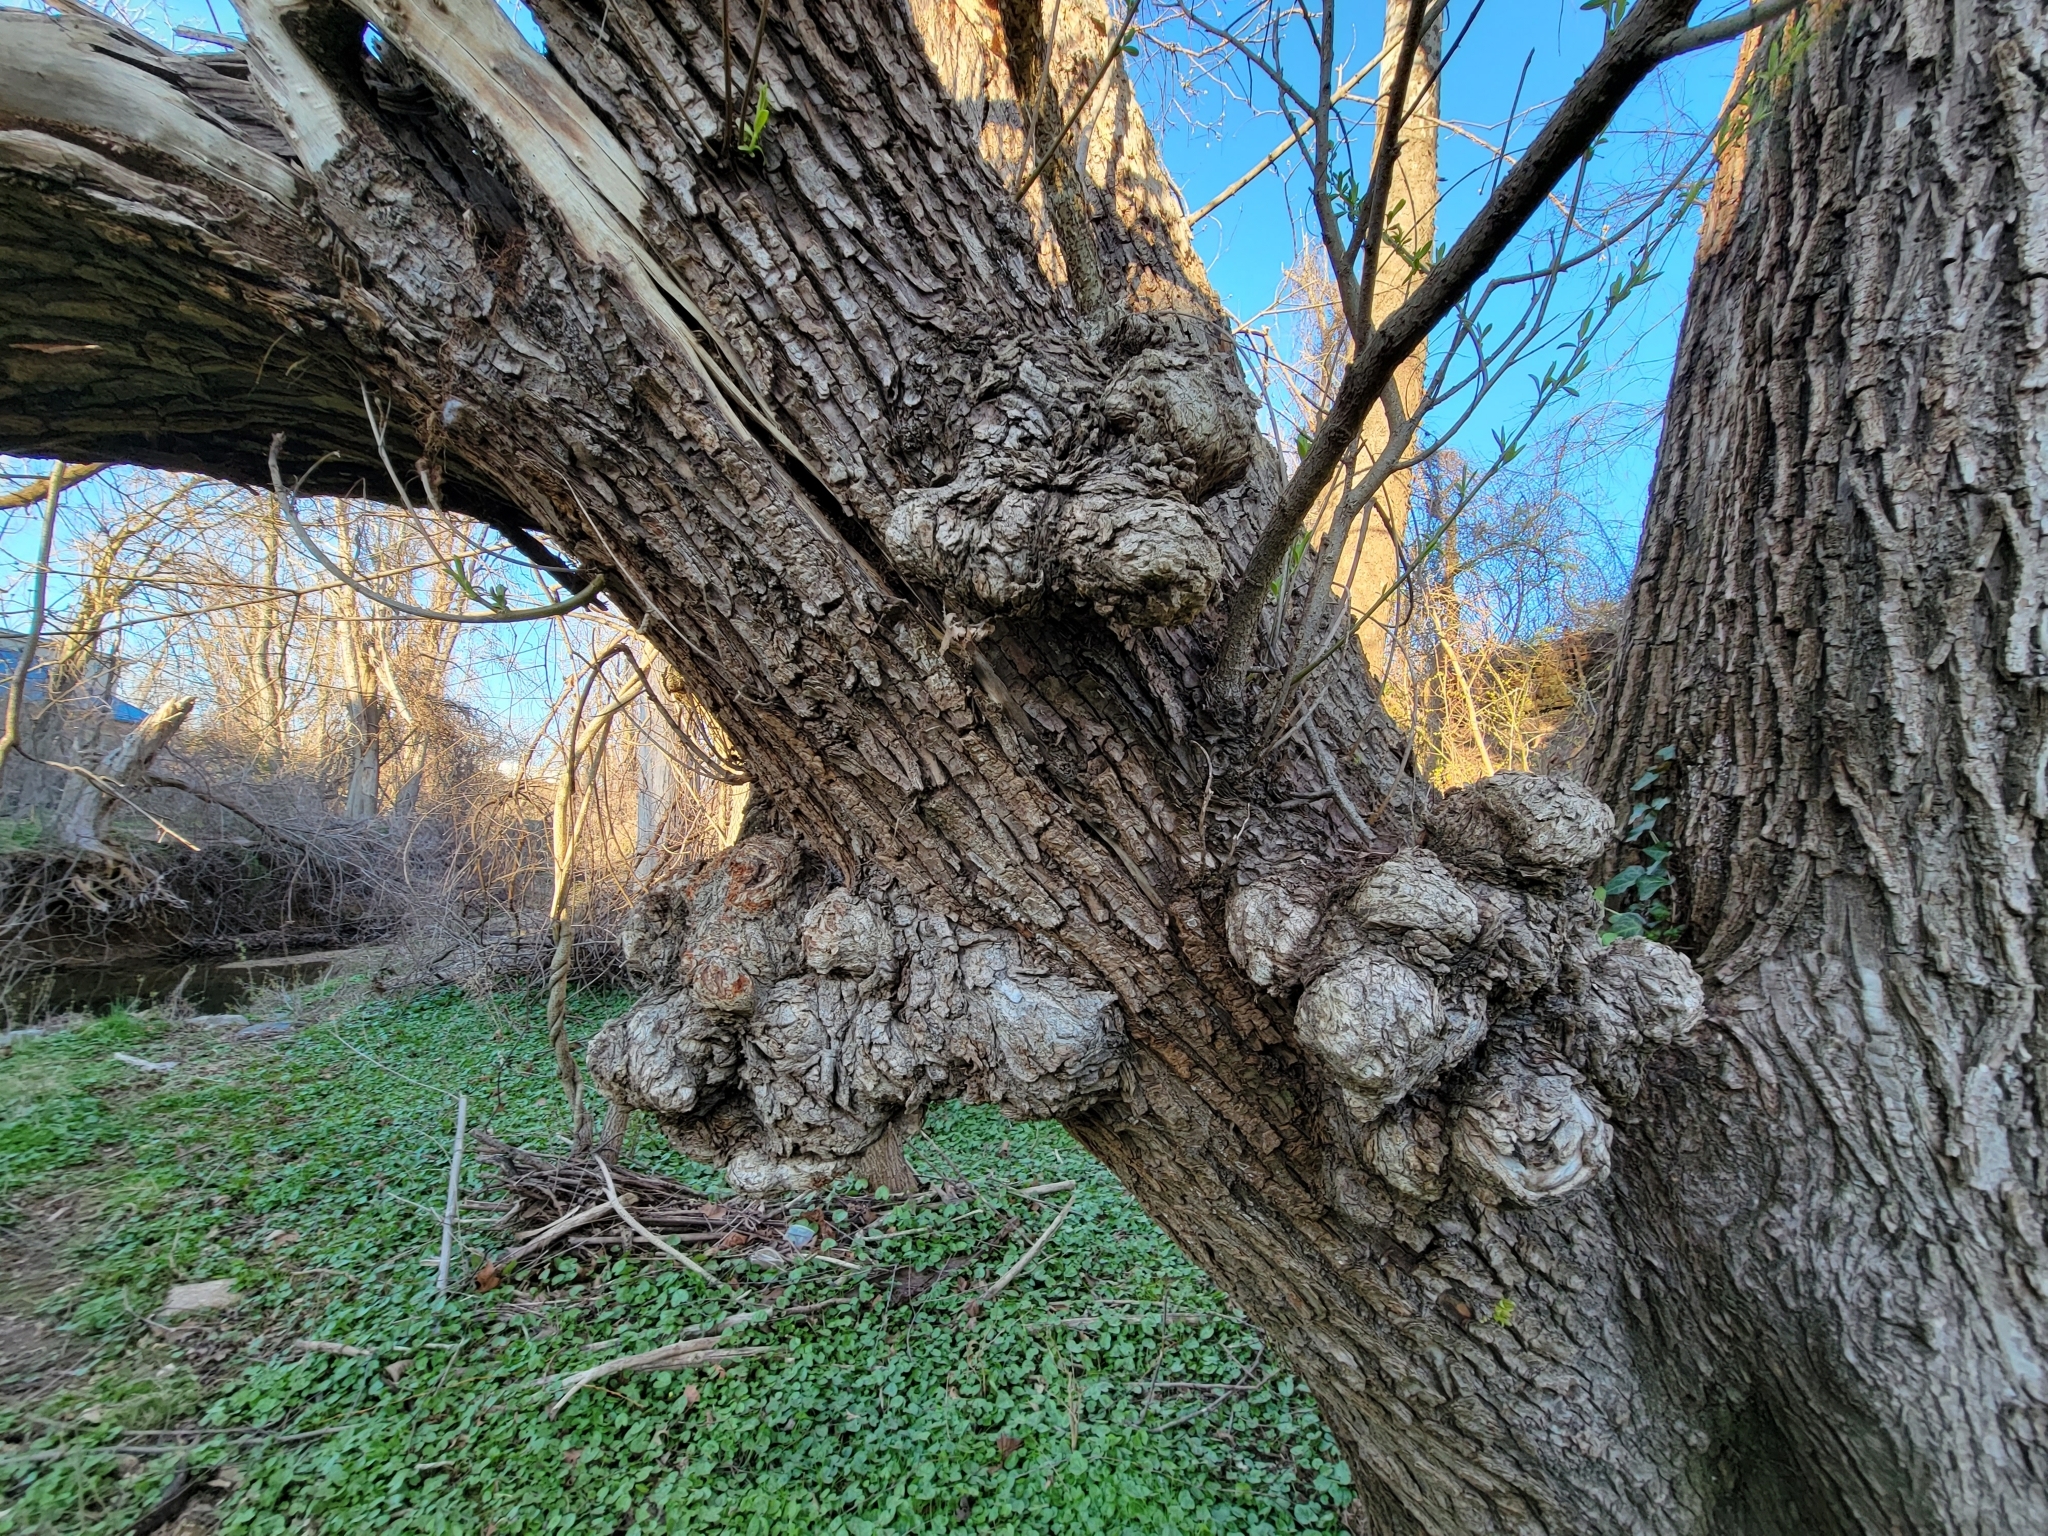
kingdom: Bacteria
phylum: Proteobacteria
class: Alphaproteobacteria
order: Rhizobiales
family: Rhizobiaceae
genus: Rhizobium
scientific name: Rhizobium Agrobacterium radiobacter
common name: Bacterial crown gall
